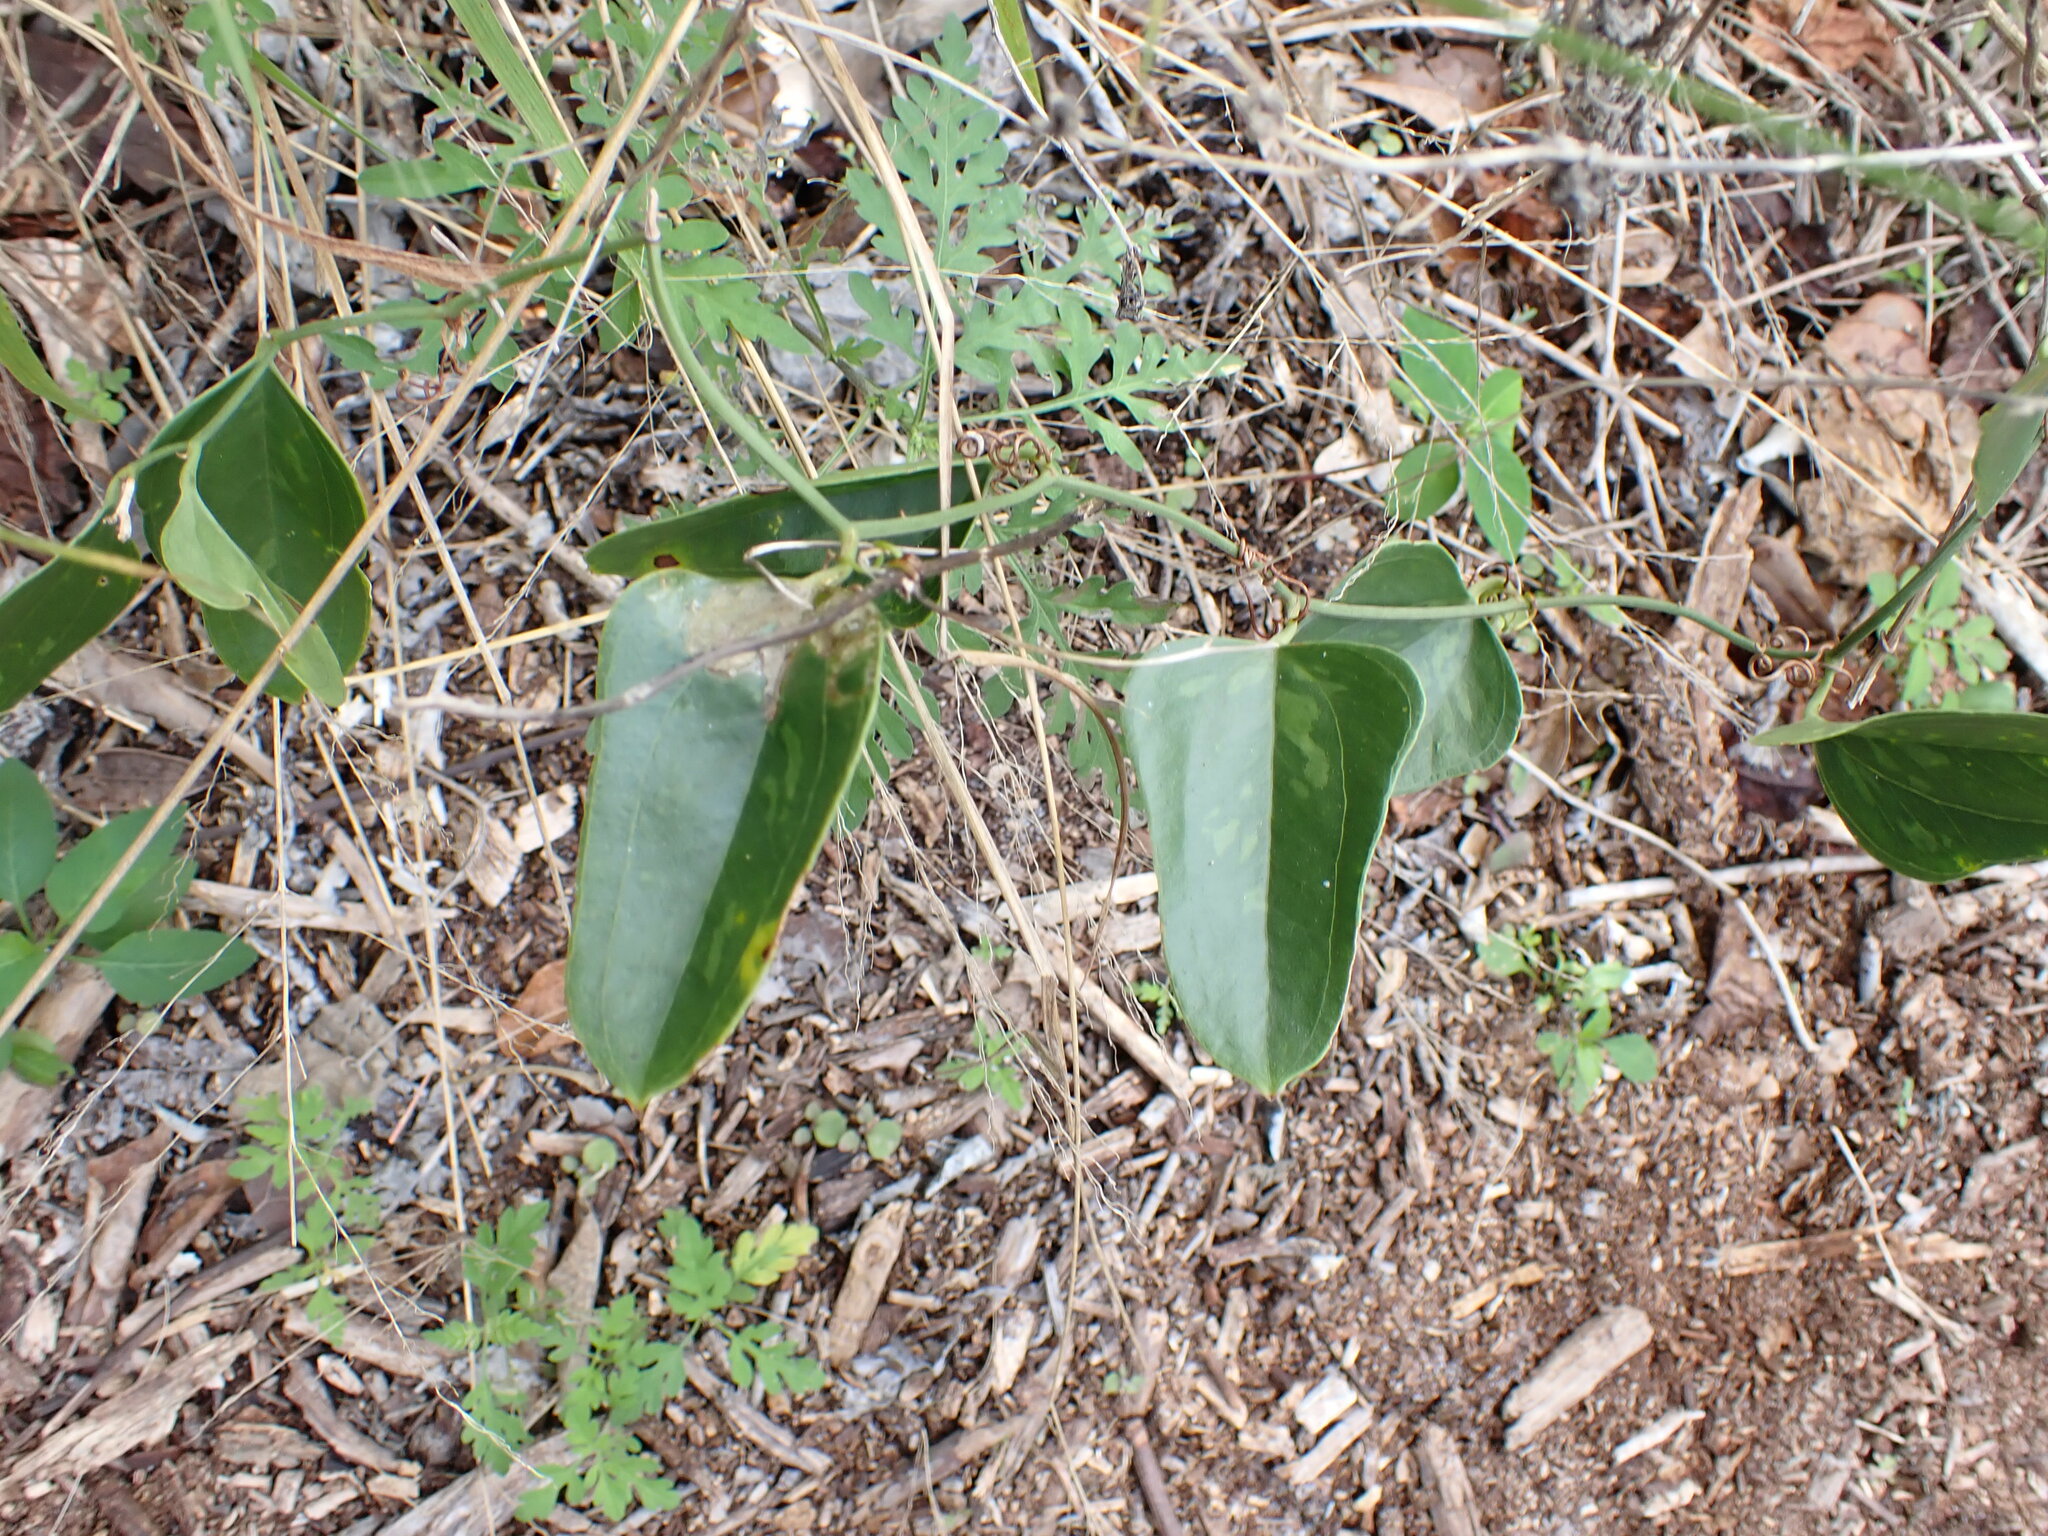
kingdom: Plantae
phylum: Tracheophyta
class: Liliopsida
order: Liliales
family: Smilacaceae
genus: Smilax
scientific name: Smilax auriculata
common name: Wild bamboo
